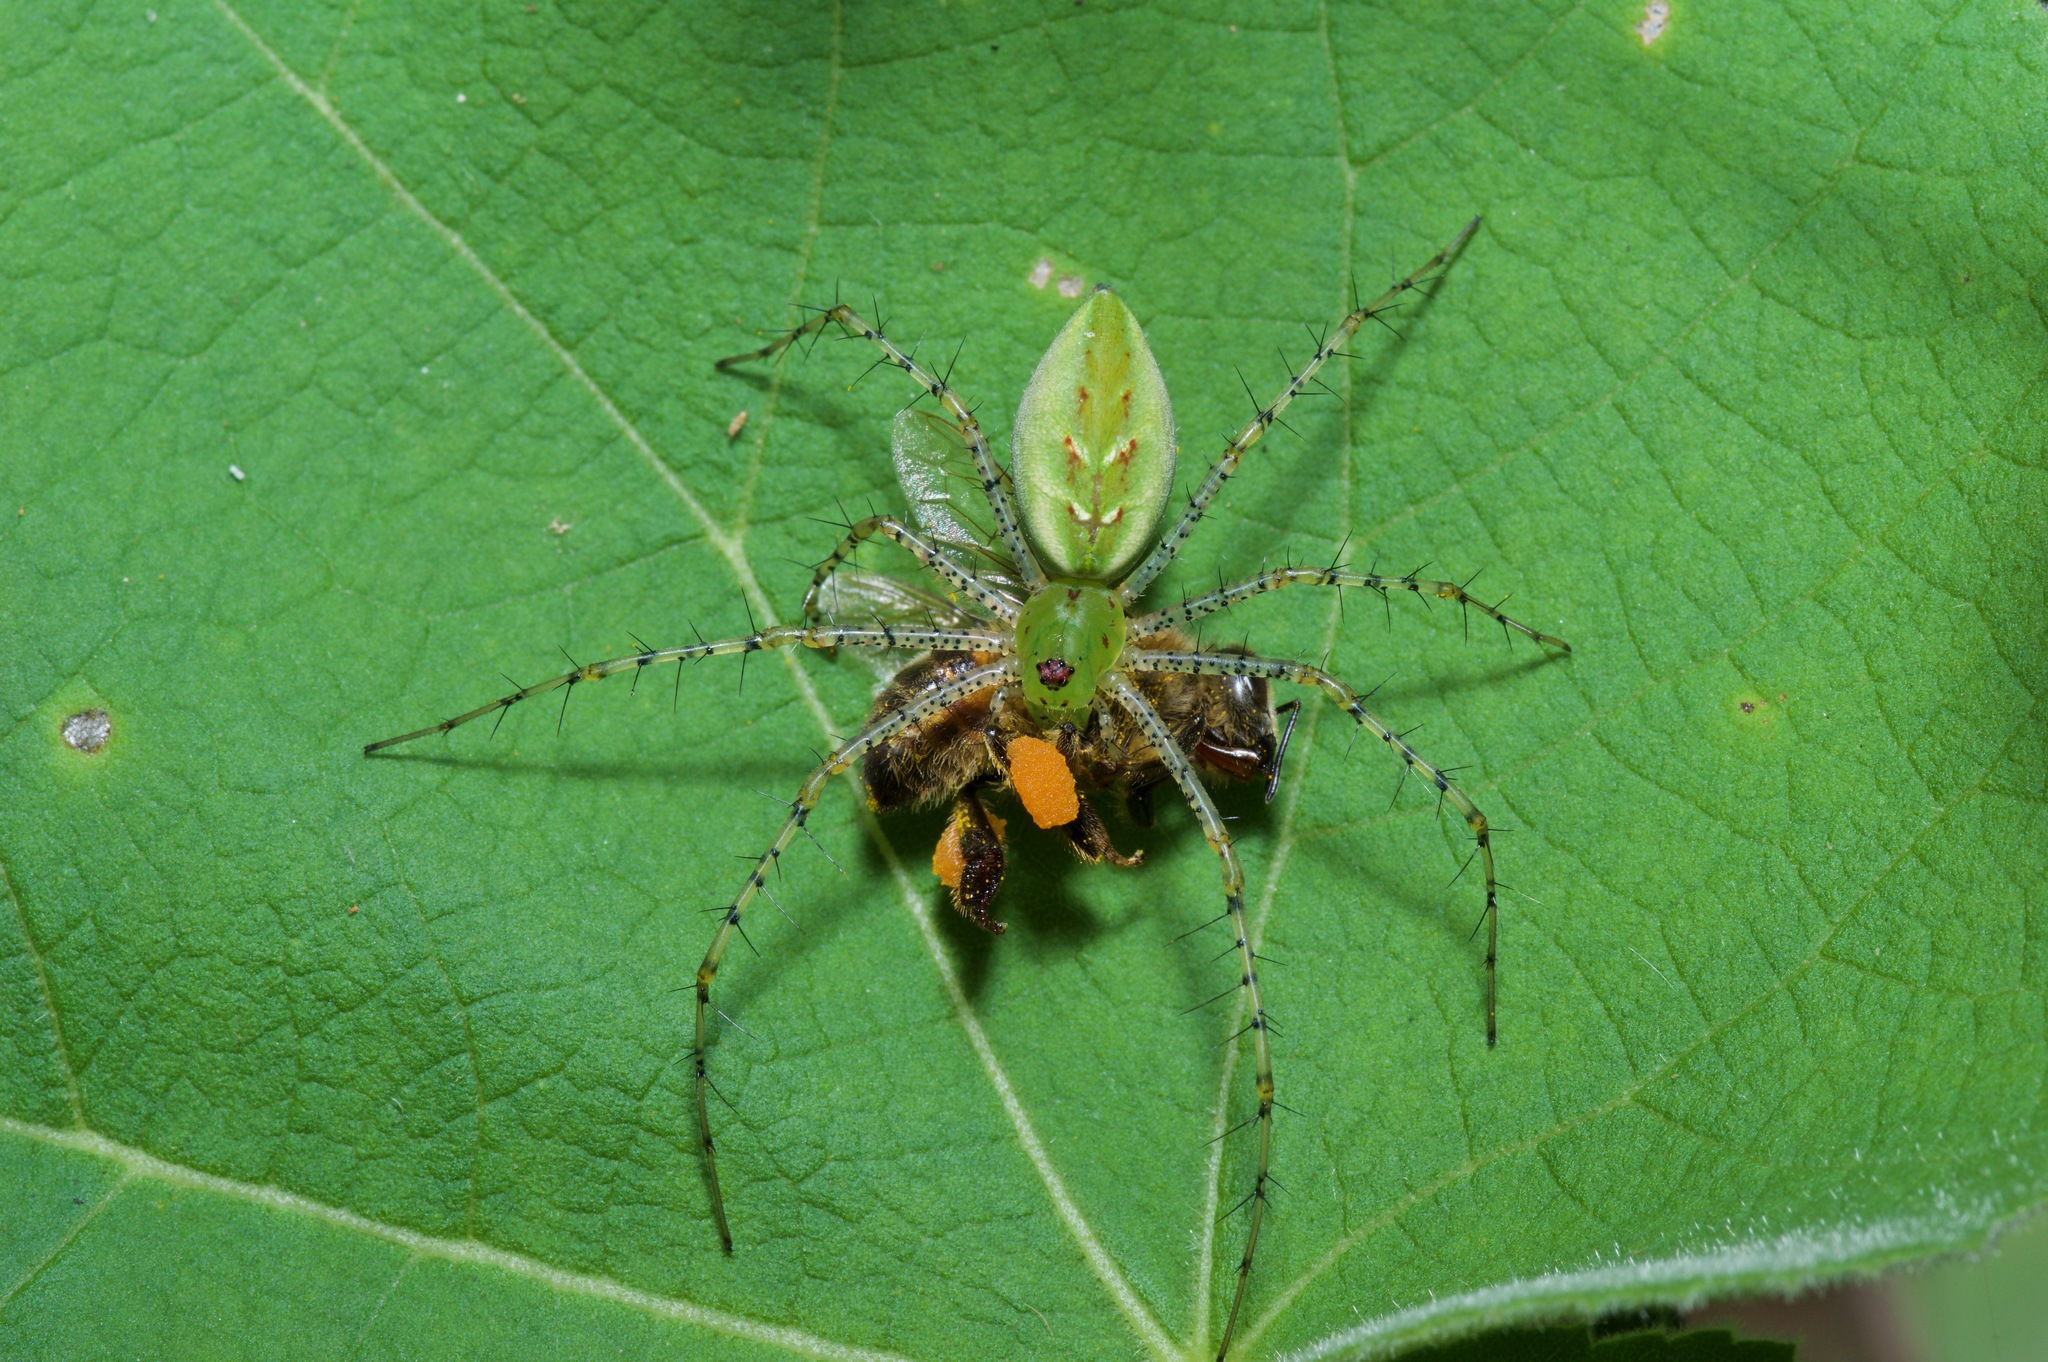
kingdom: Animalia
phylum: Arthropoda
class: Arachnida
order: Araneae
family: Oxyopidae
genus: Peucetia
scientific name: Peucetia viridans
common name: Lynx spiders
